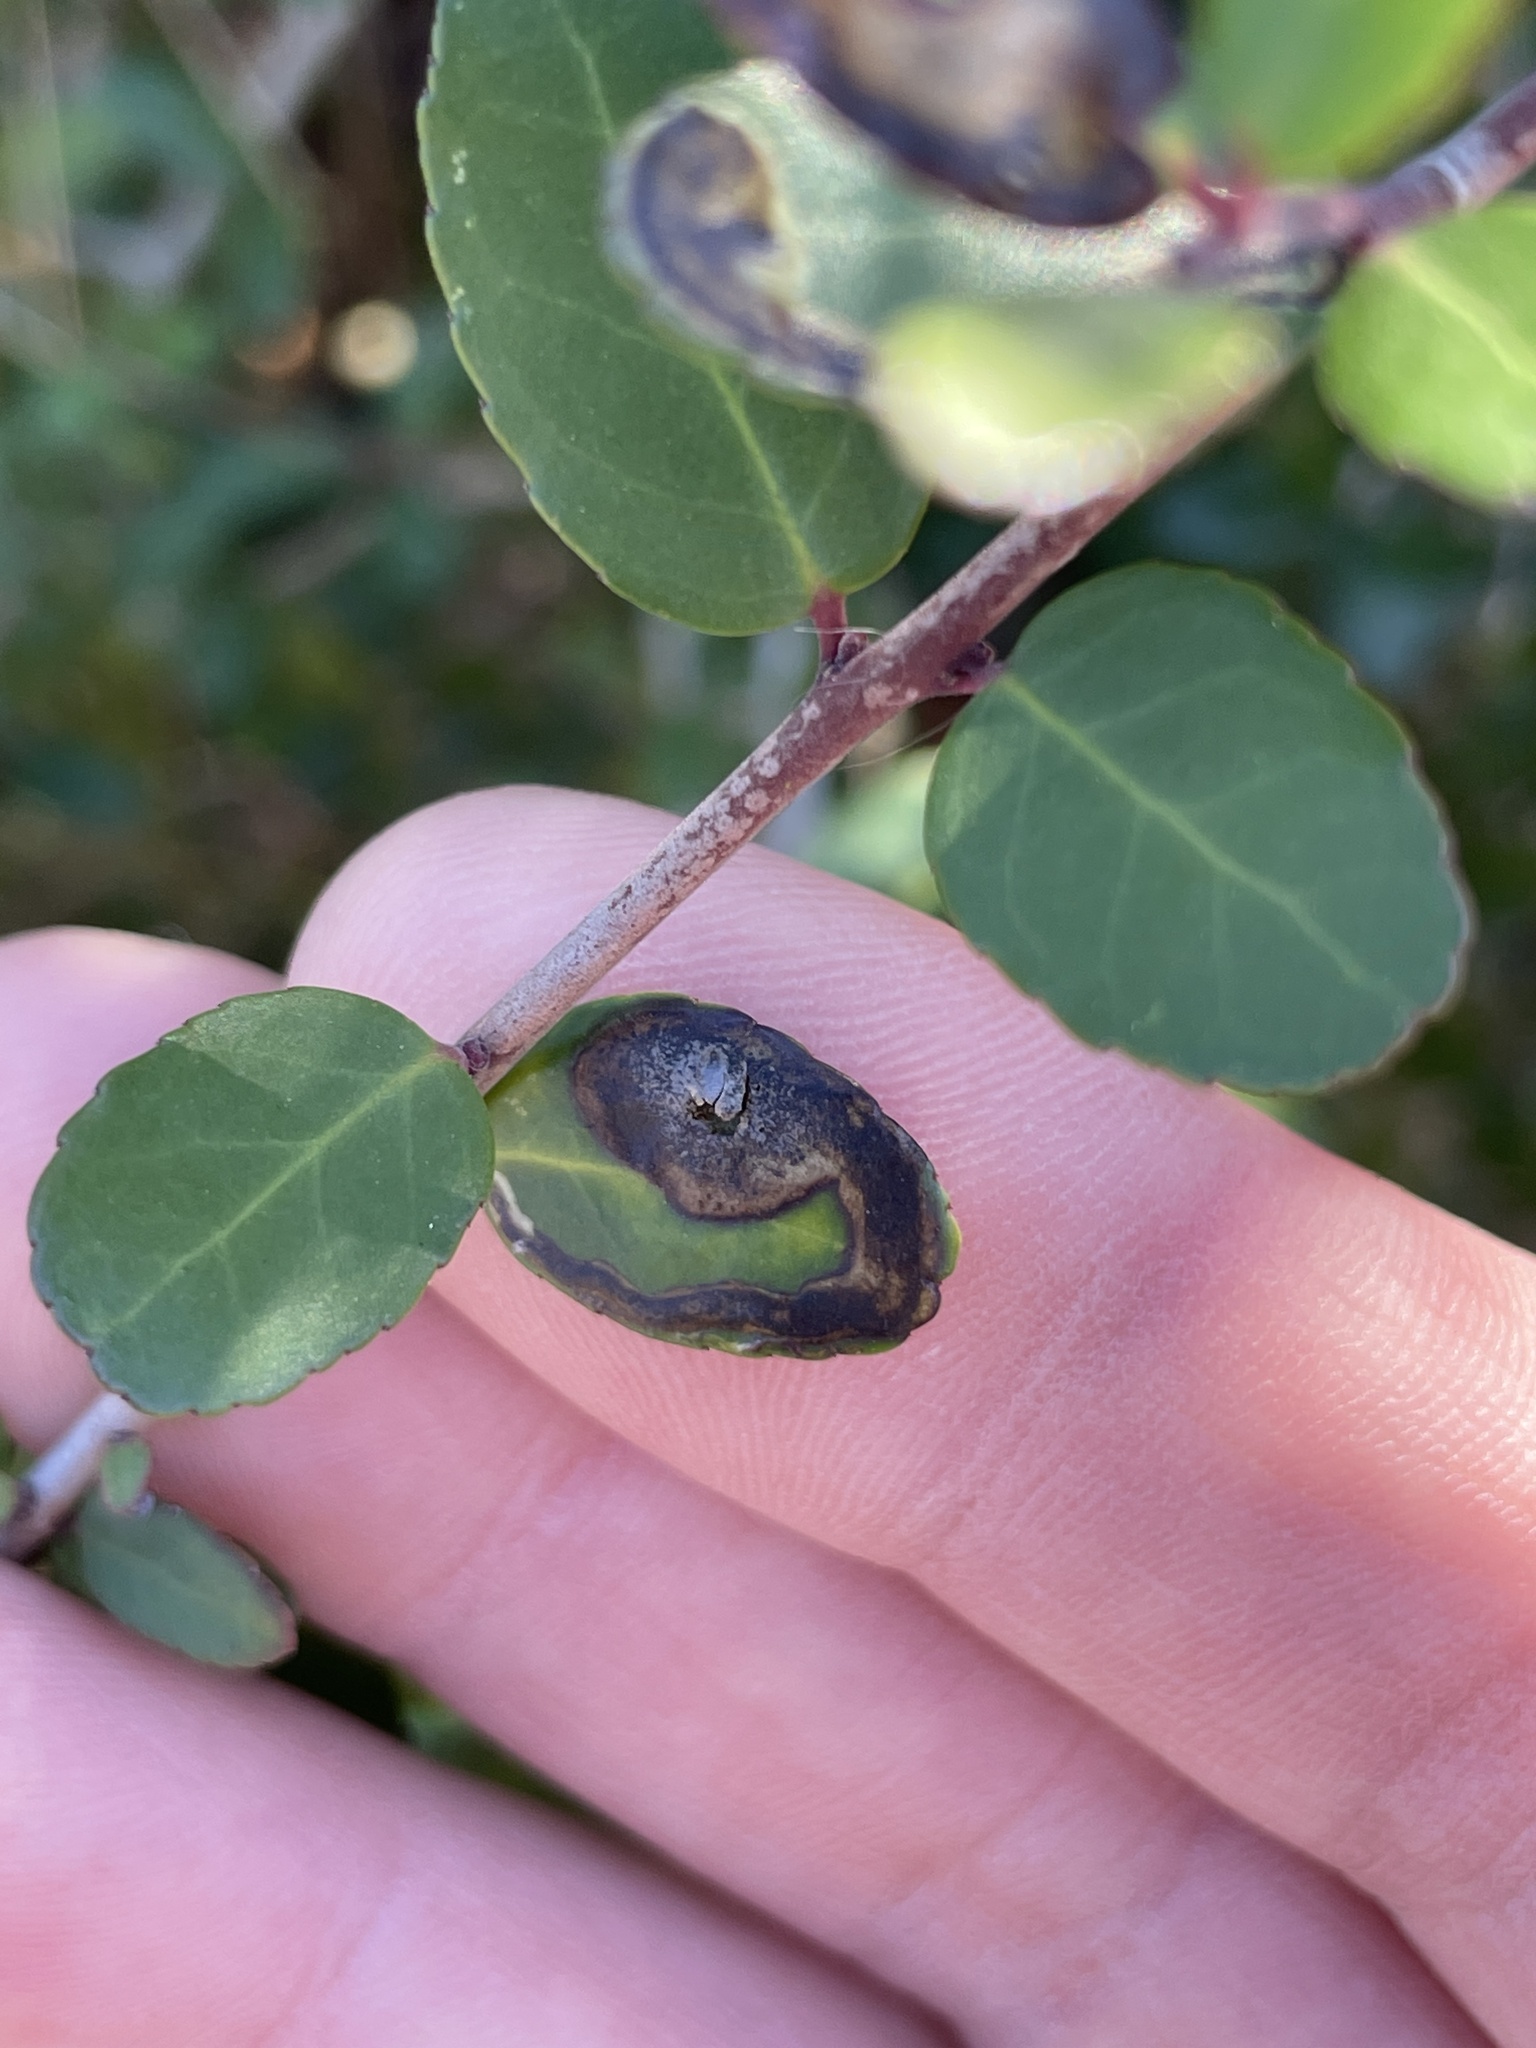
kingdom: Animalia
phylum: Arthropoda
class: Insecta
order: Diptera
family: Agromyzidae
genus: Phytomyza
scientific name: Phytomyza vomitoriae
